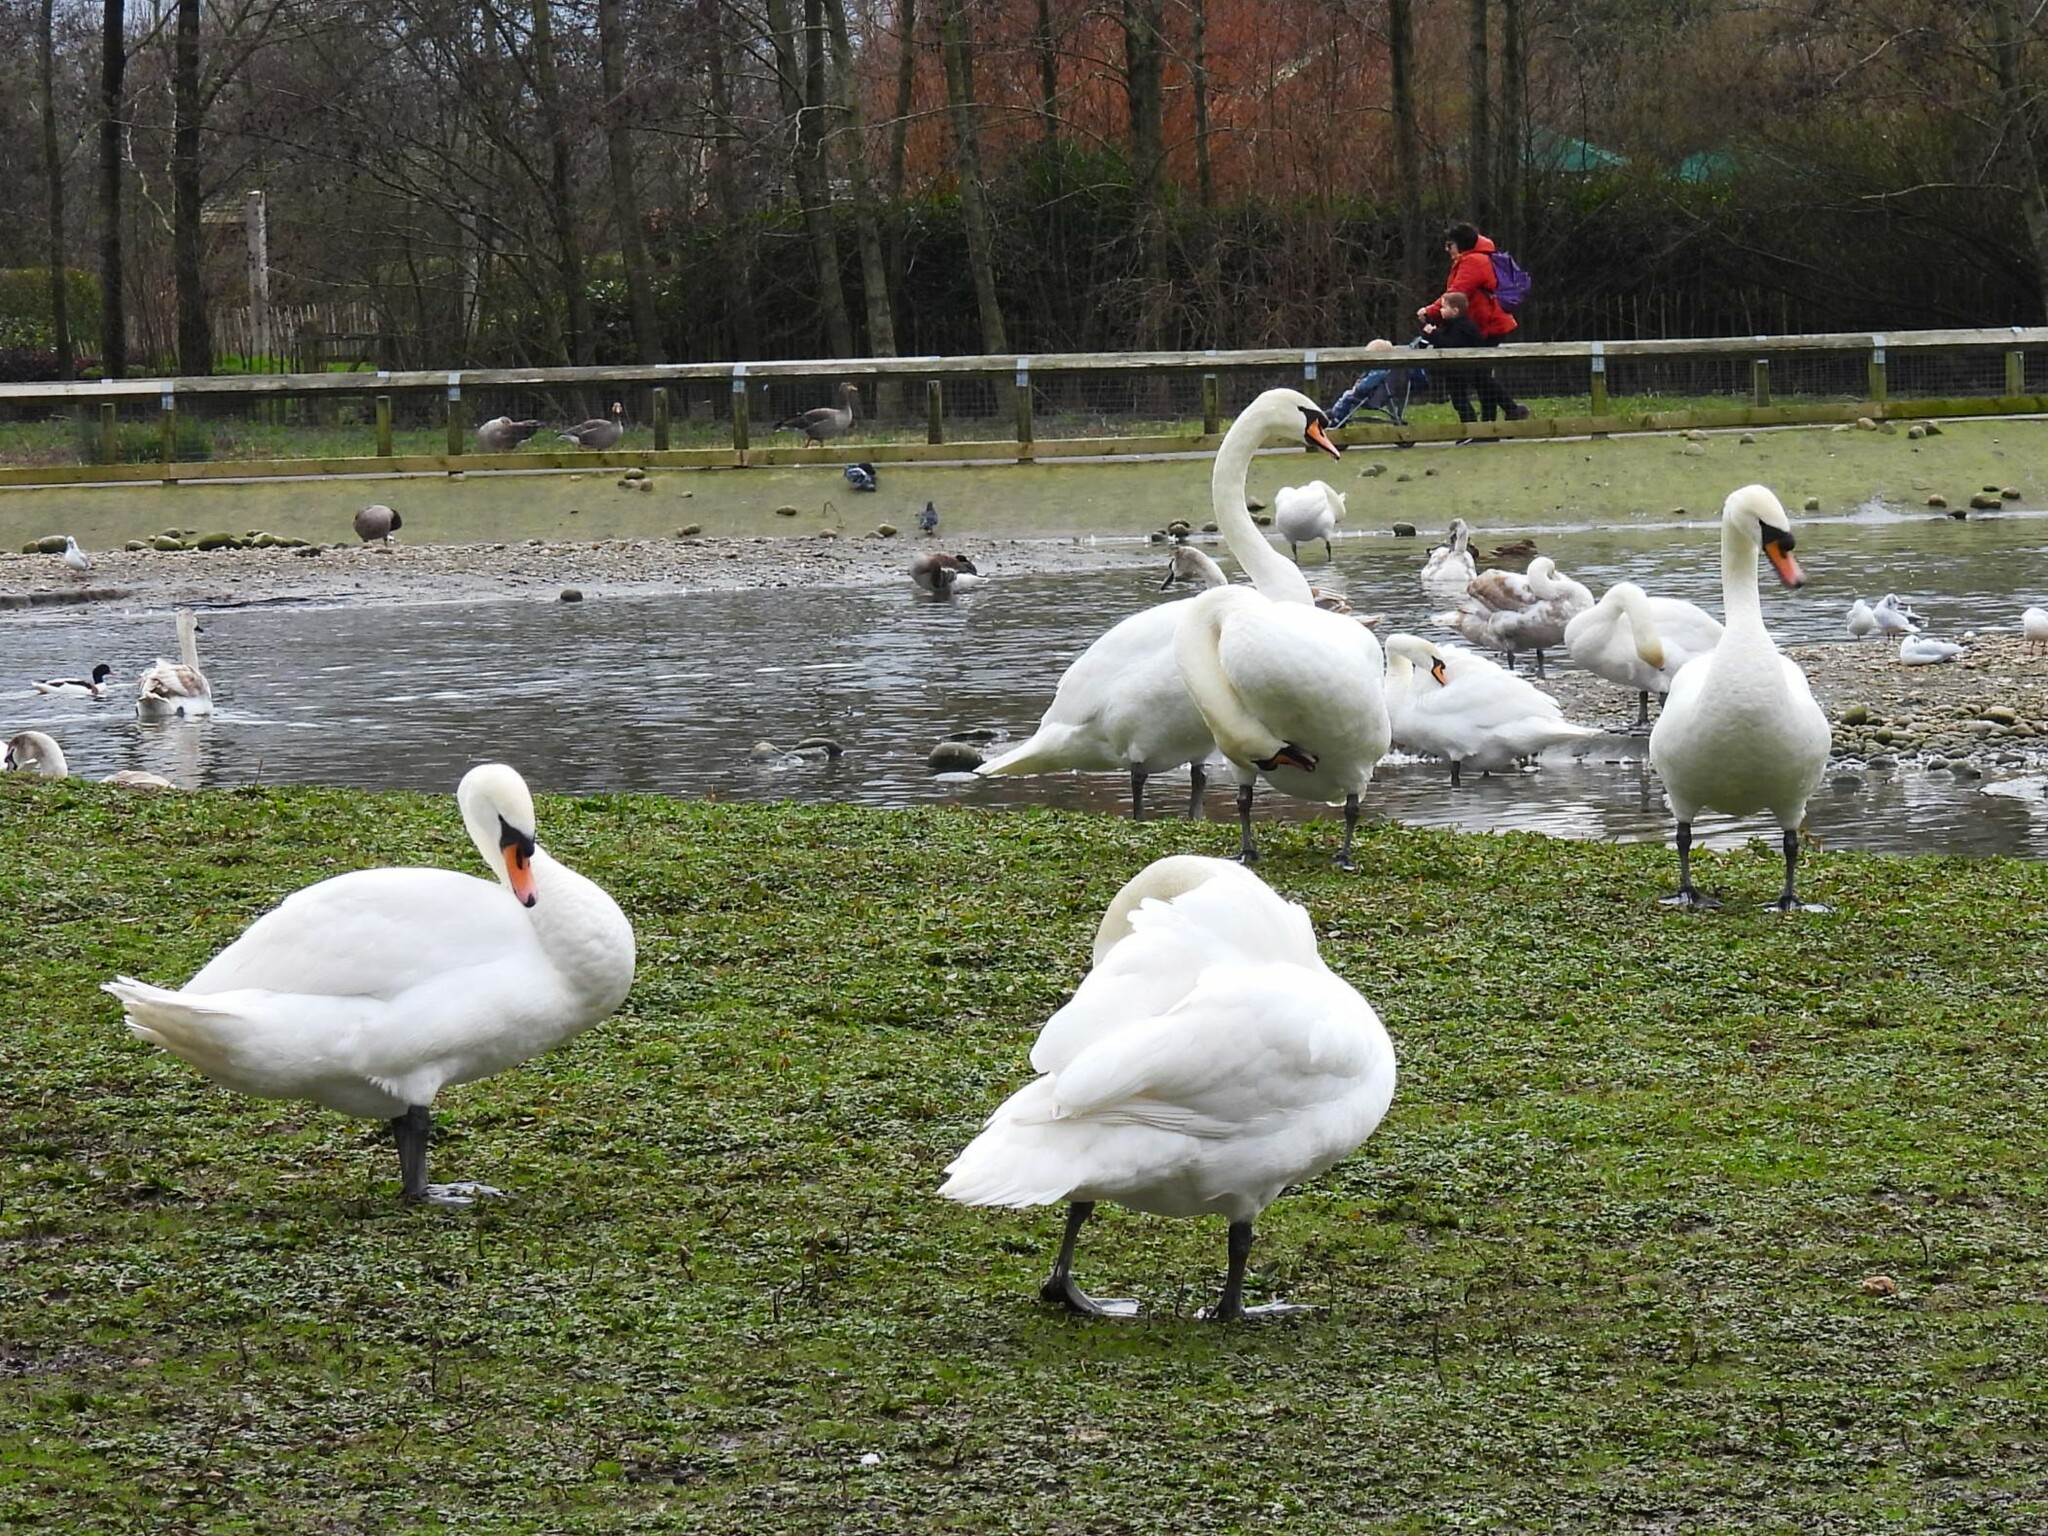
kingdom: Animalia
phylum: Chordata
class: Aves
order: Anseriformes
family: Anatidae
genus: Cygnus
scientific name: Cygnus olor
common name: Mute swan
